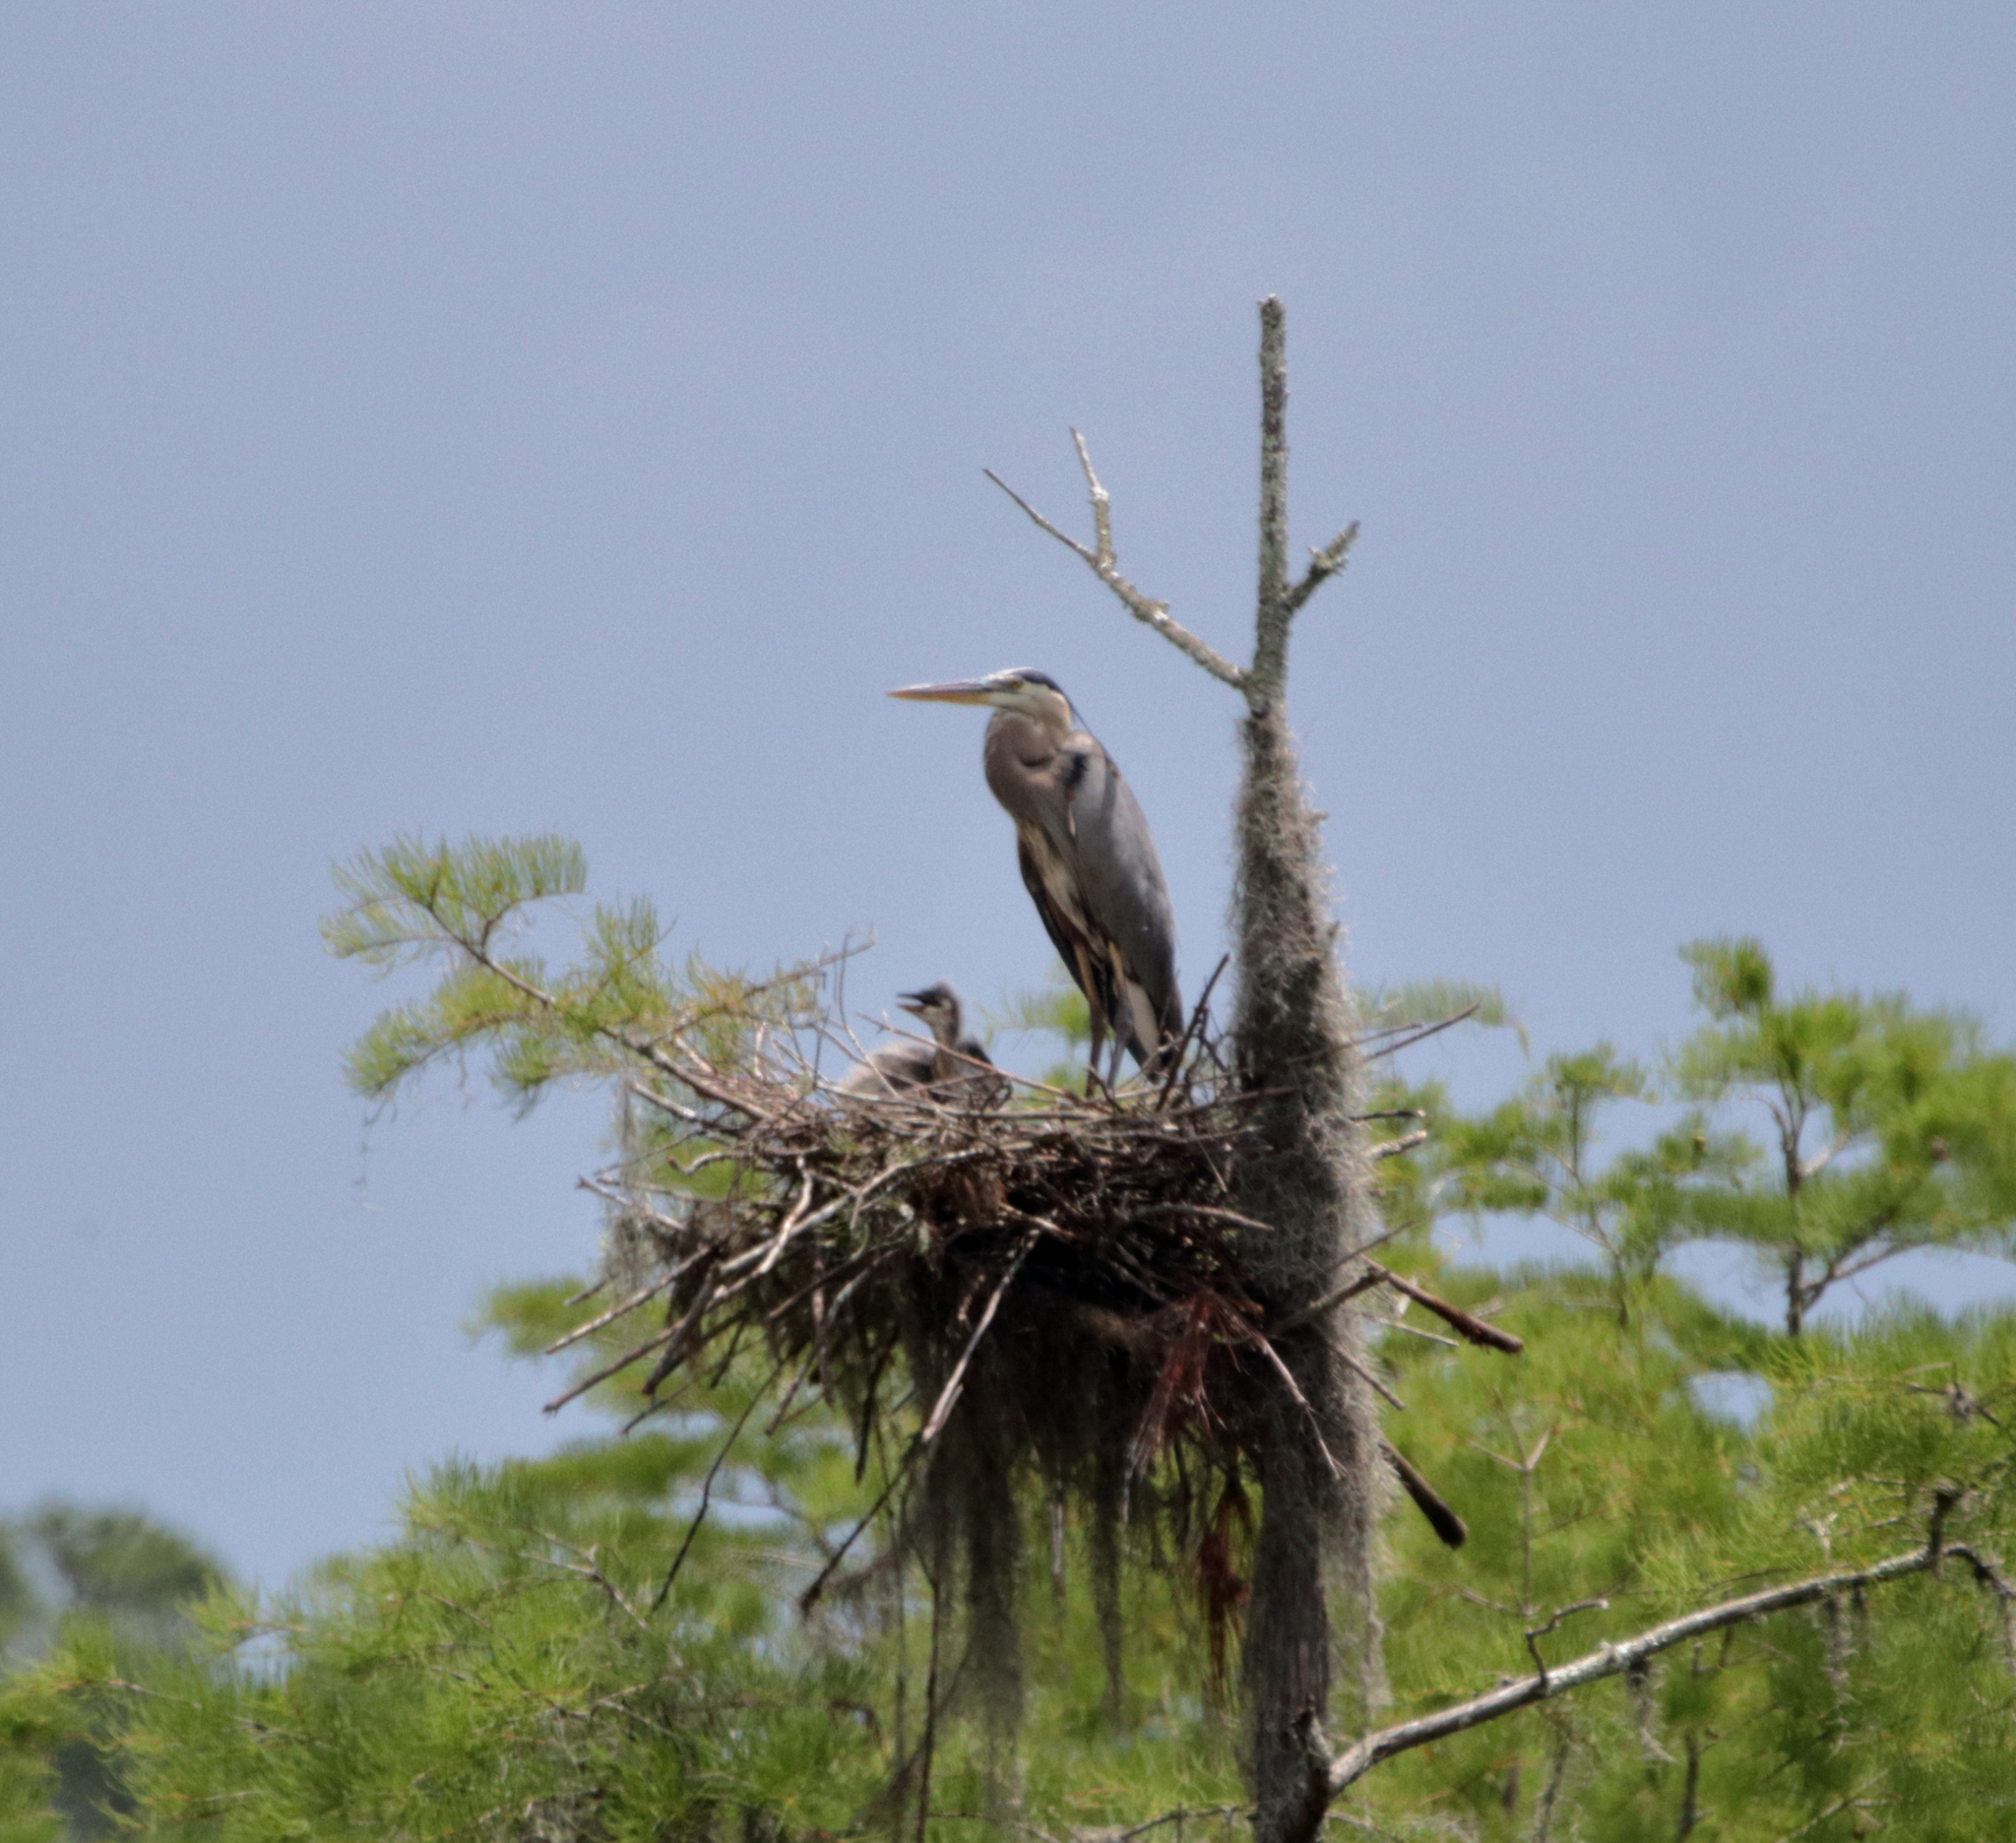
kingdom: Animalia
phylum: Chordata
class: Aves
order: Pelecaniformes
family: Ardeidae
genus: Ardea
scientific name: Ardea herodias
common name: Great blue heron
